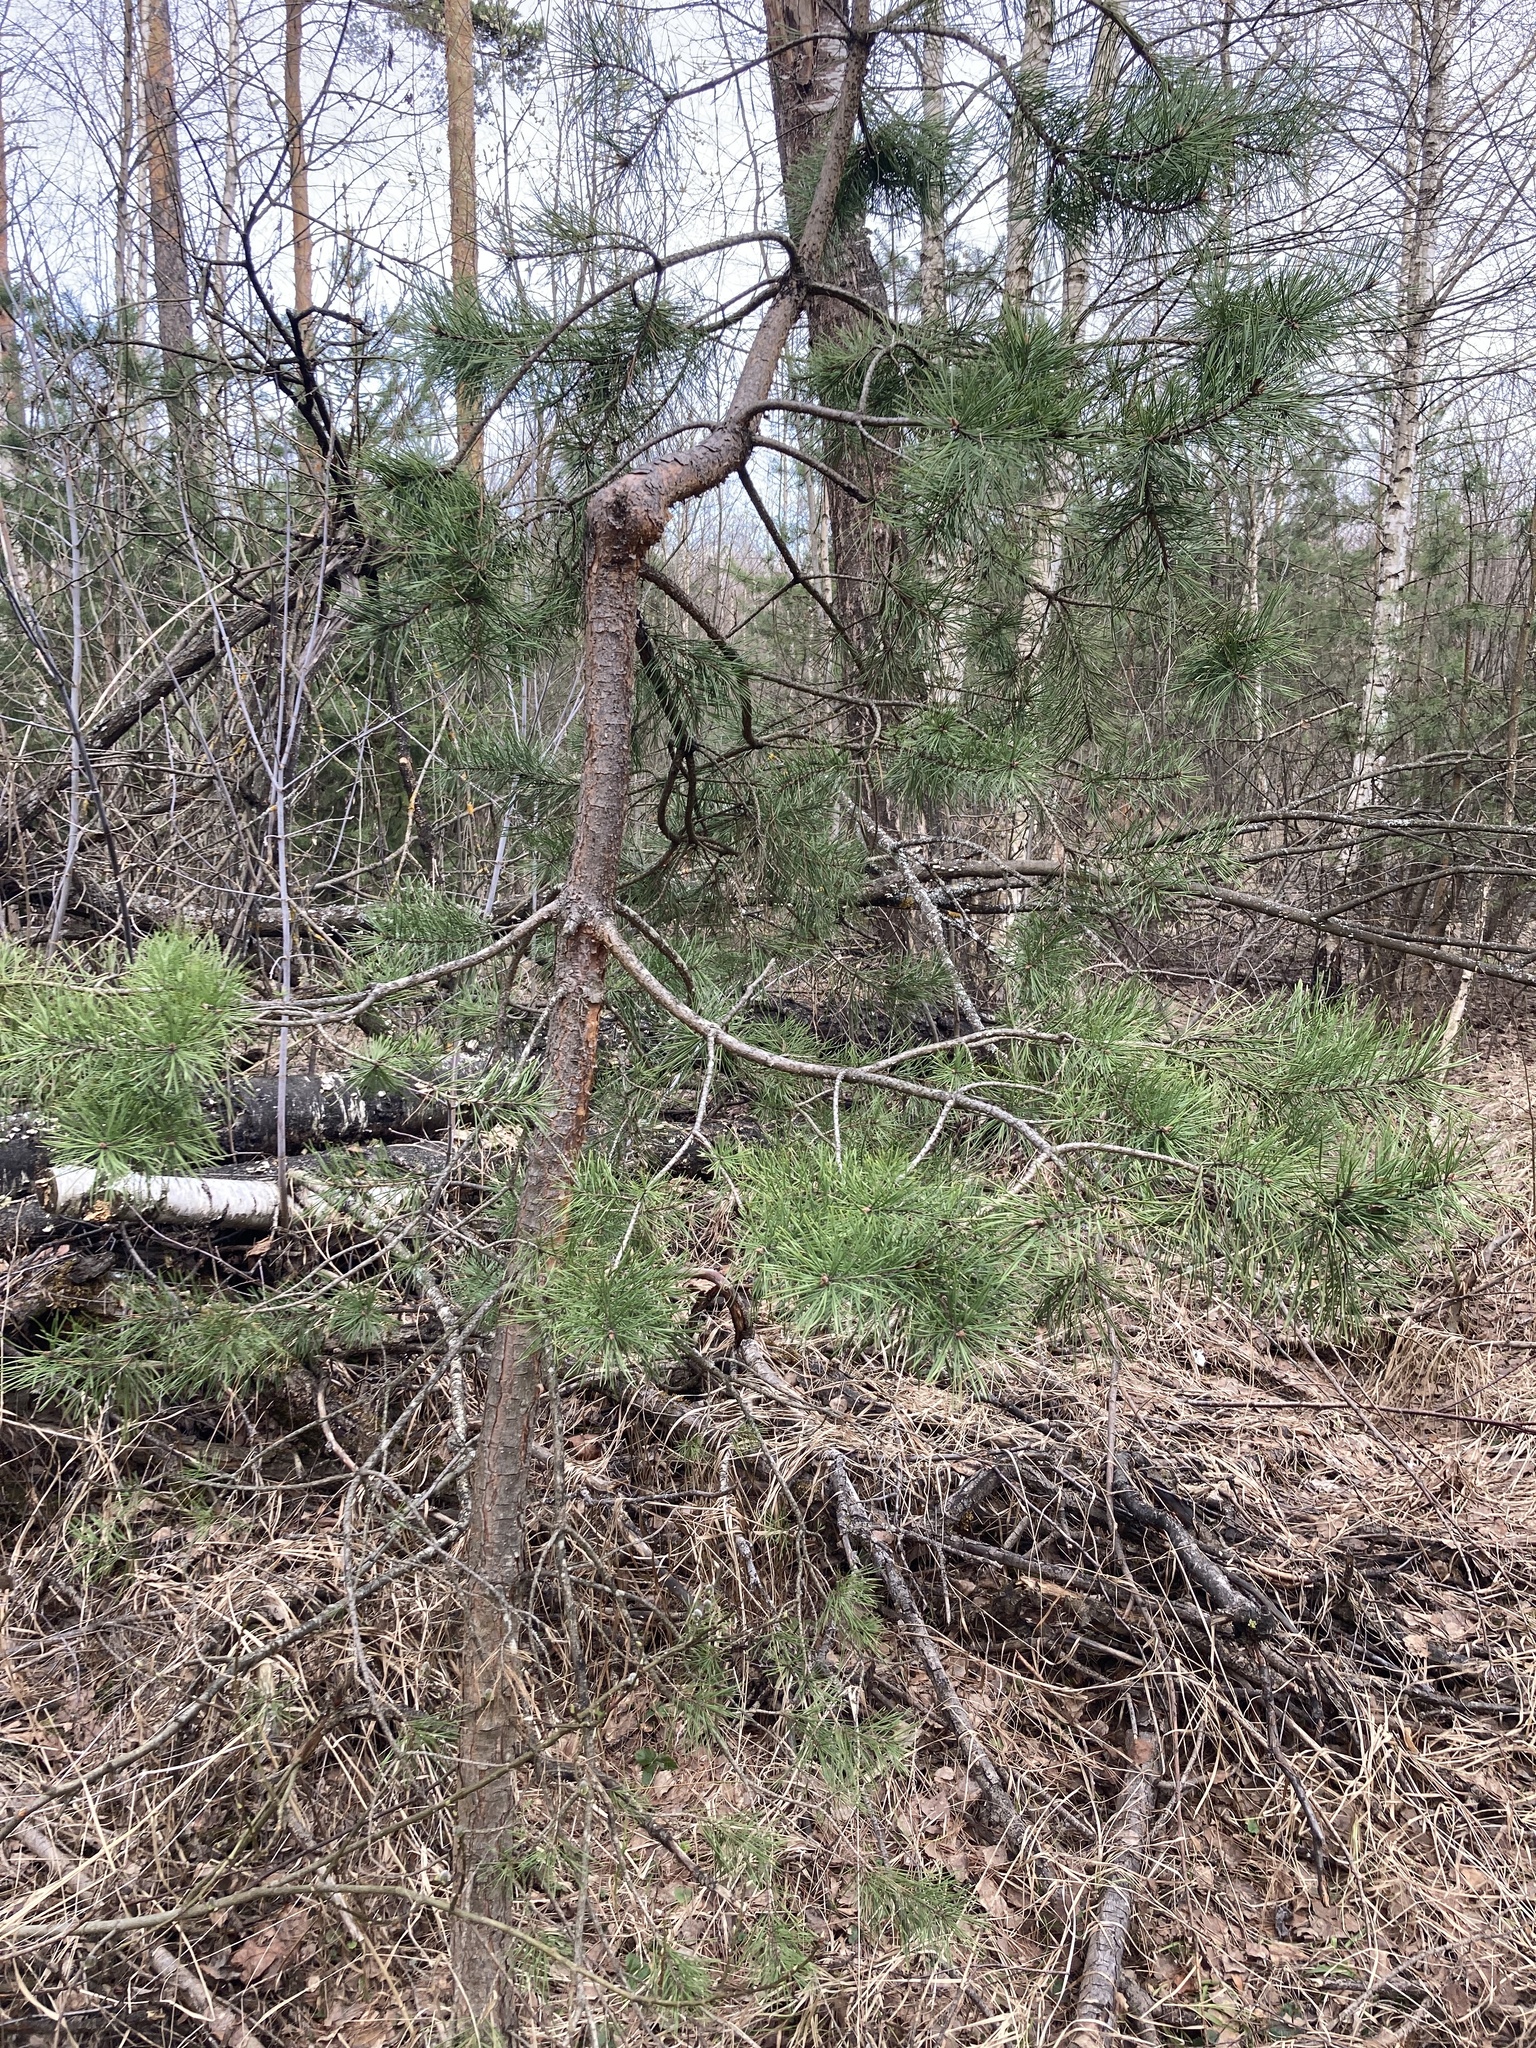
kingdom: Plantae
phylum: Tracheophyta
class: Pinopsida
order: Pinales
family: Pinaceae
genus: Pinus
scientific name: Pinus sylvestris
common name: Scots pine
